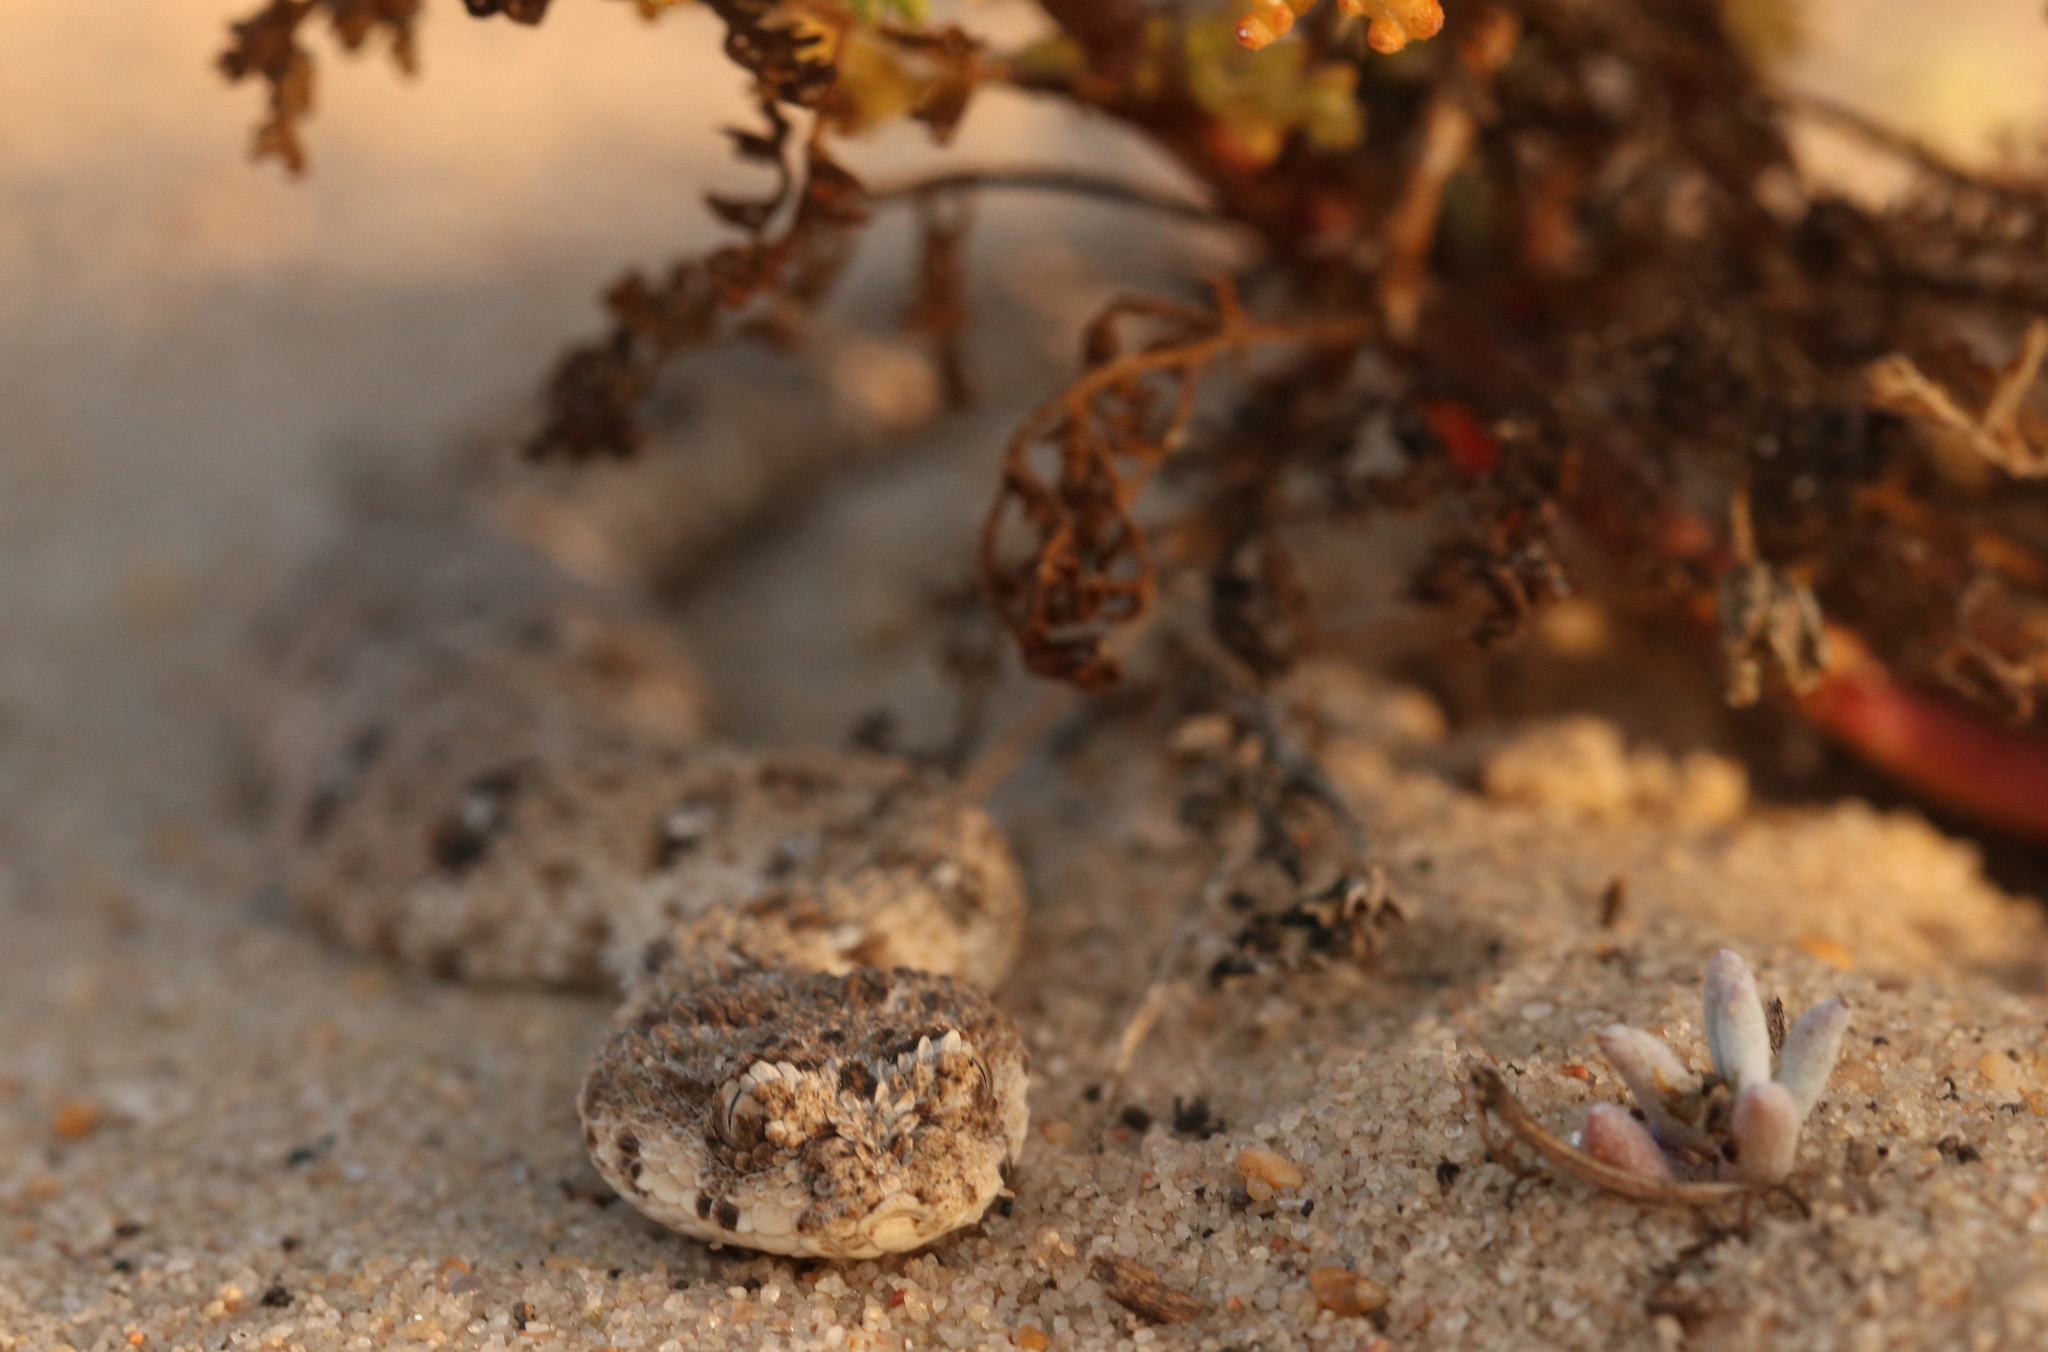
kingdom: Animalia
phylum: Chordata
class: Squamata
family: Viperidae
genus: Bitis
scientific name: Bitis schneideri
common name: Namaqua dwarf adder
